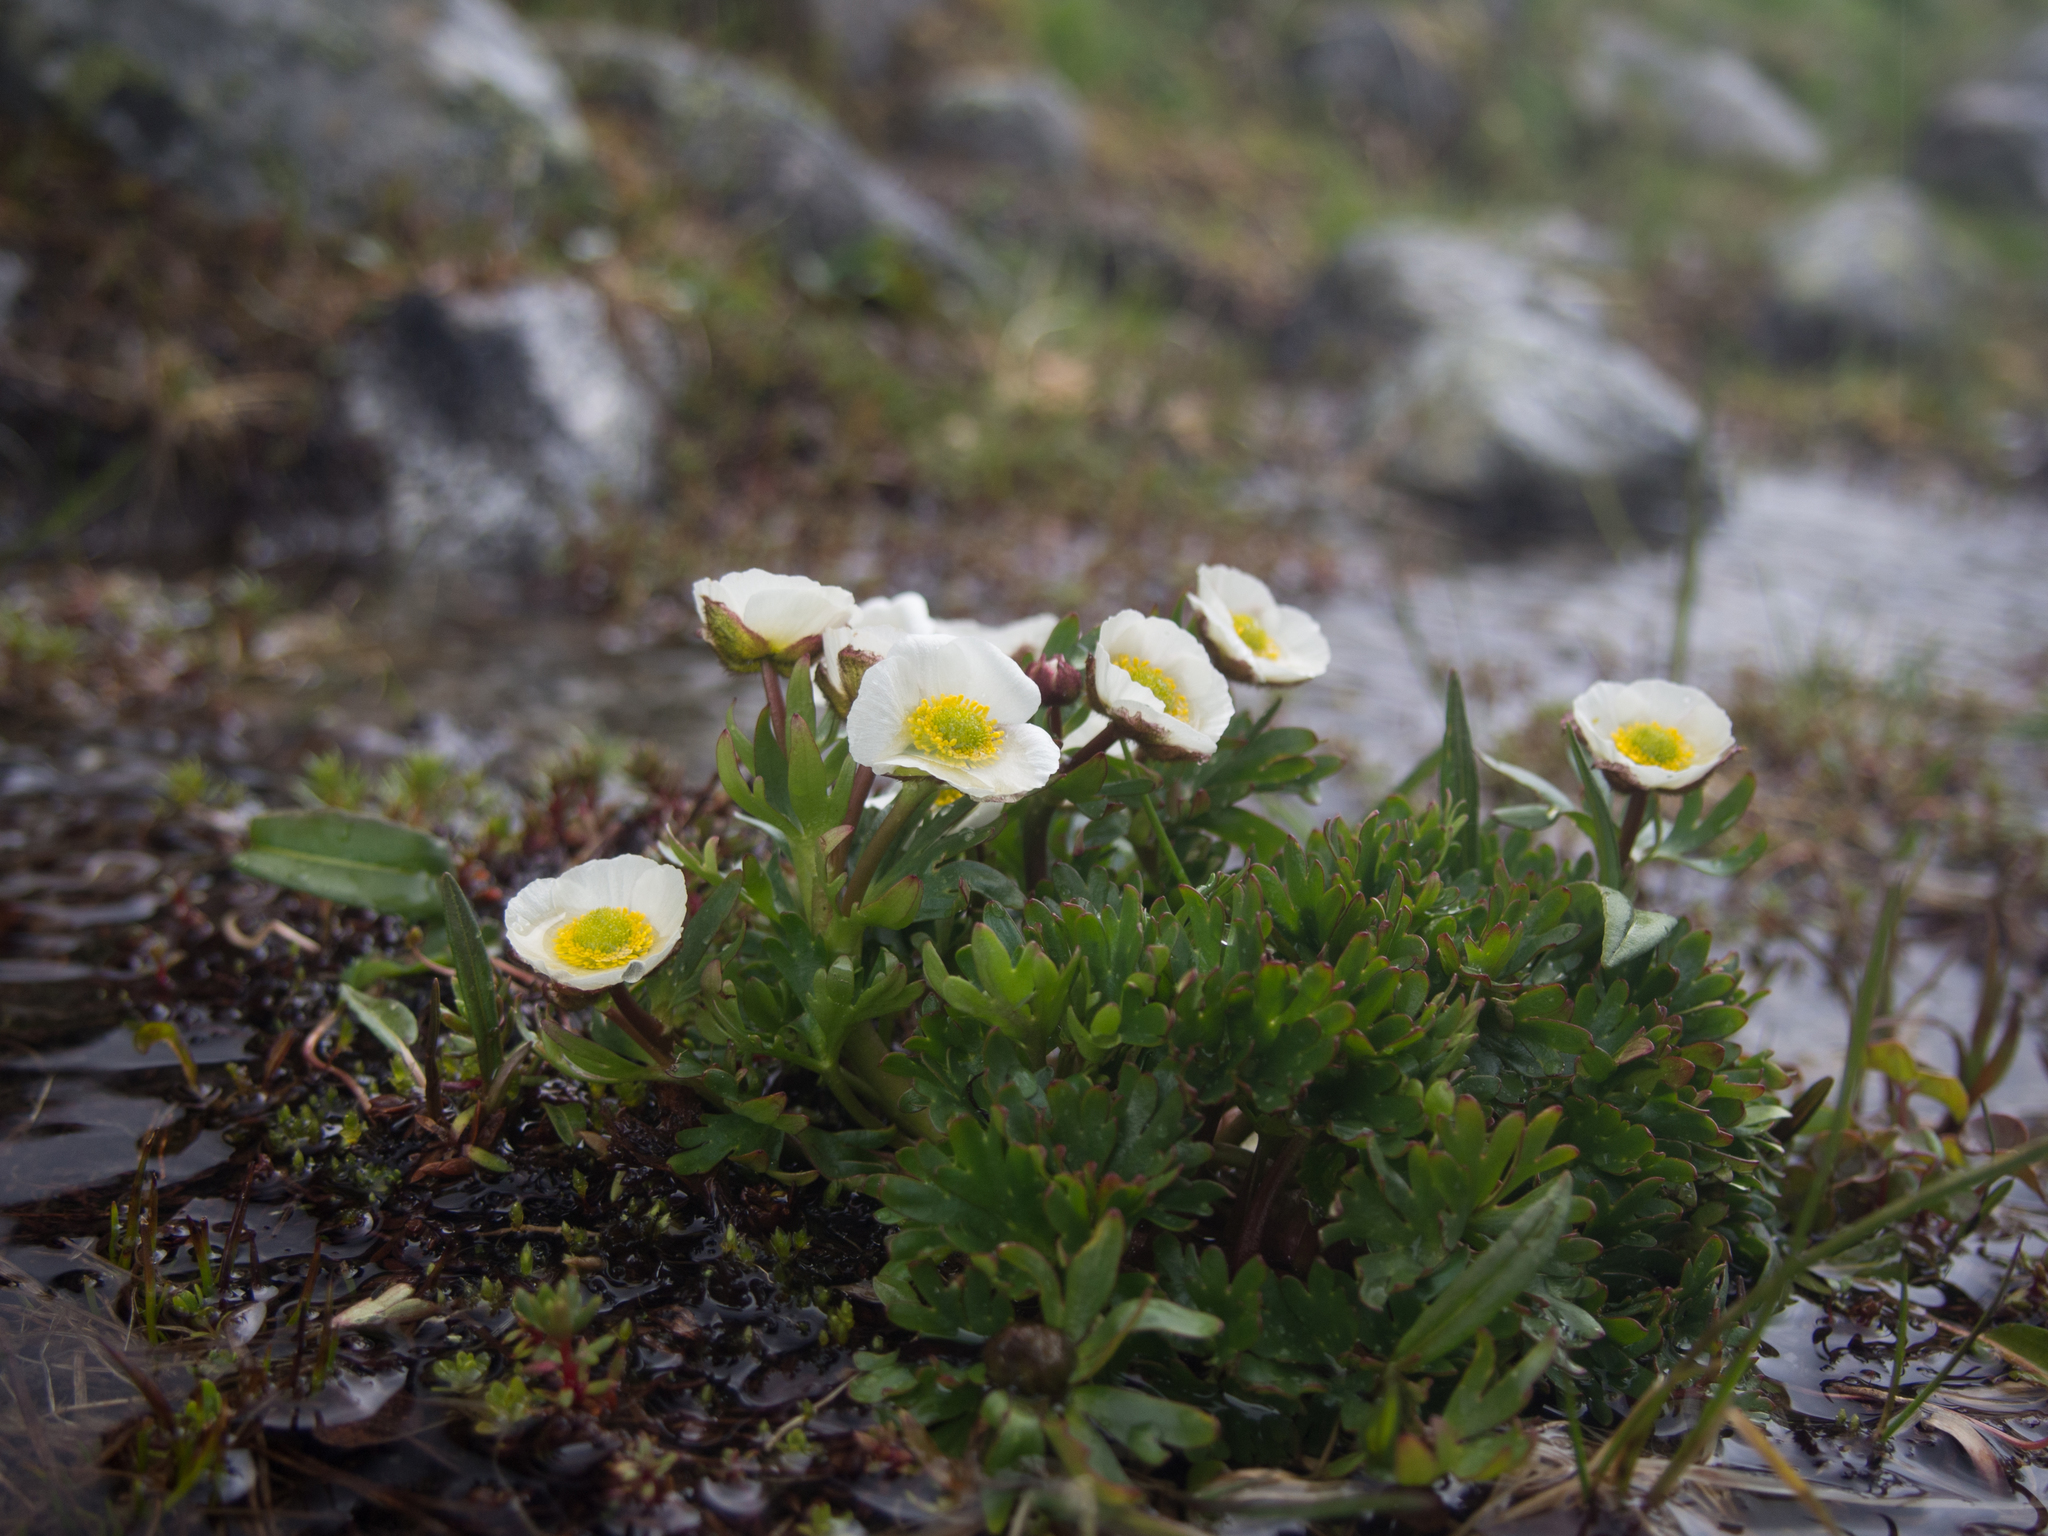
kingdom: Plantae
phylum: Tracheophyta
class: Magnoliopsida
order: Ranunculales
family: Ranunculaceae
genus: Ranunculus
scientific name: Ranunculus glacialis
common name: Glacier buttercup
